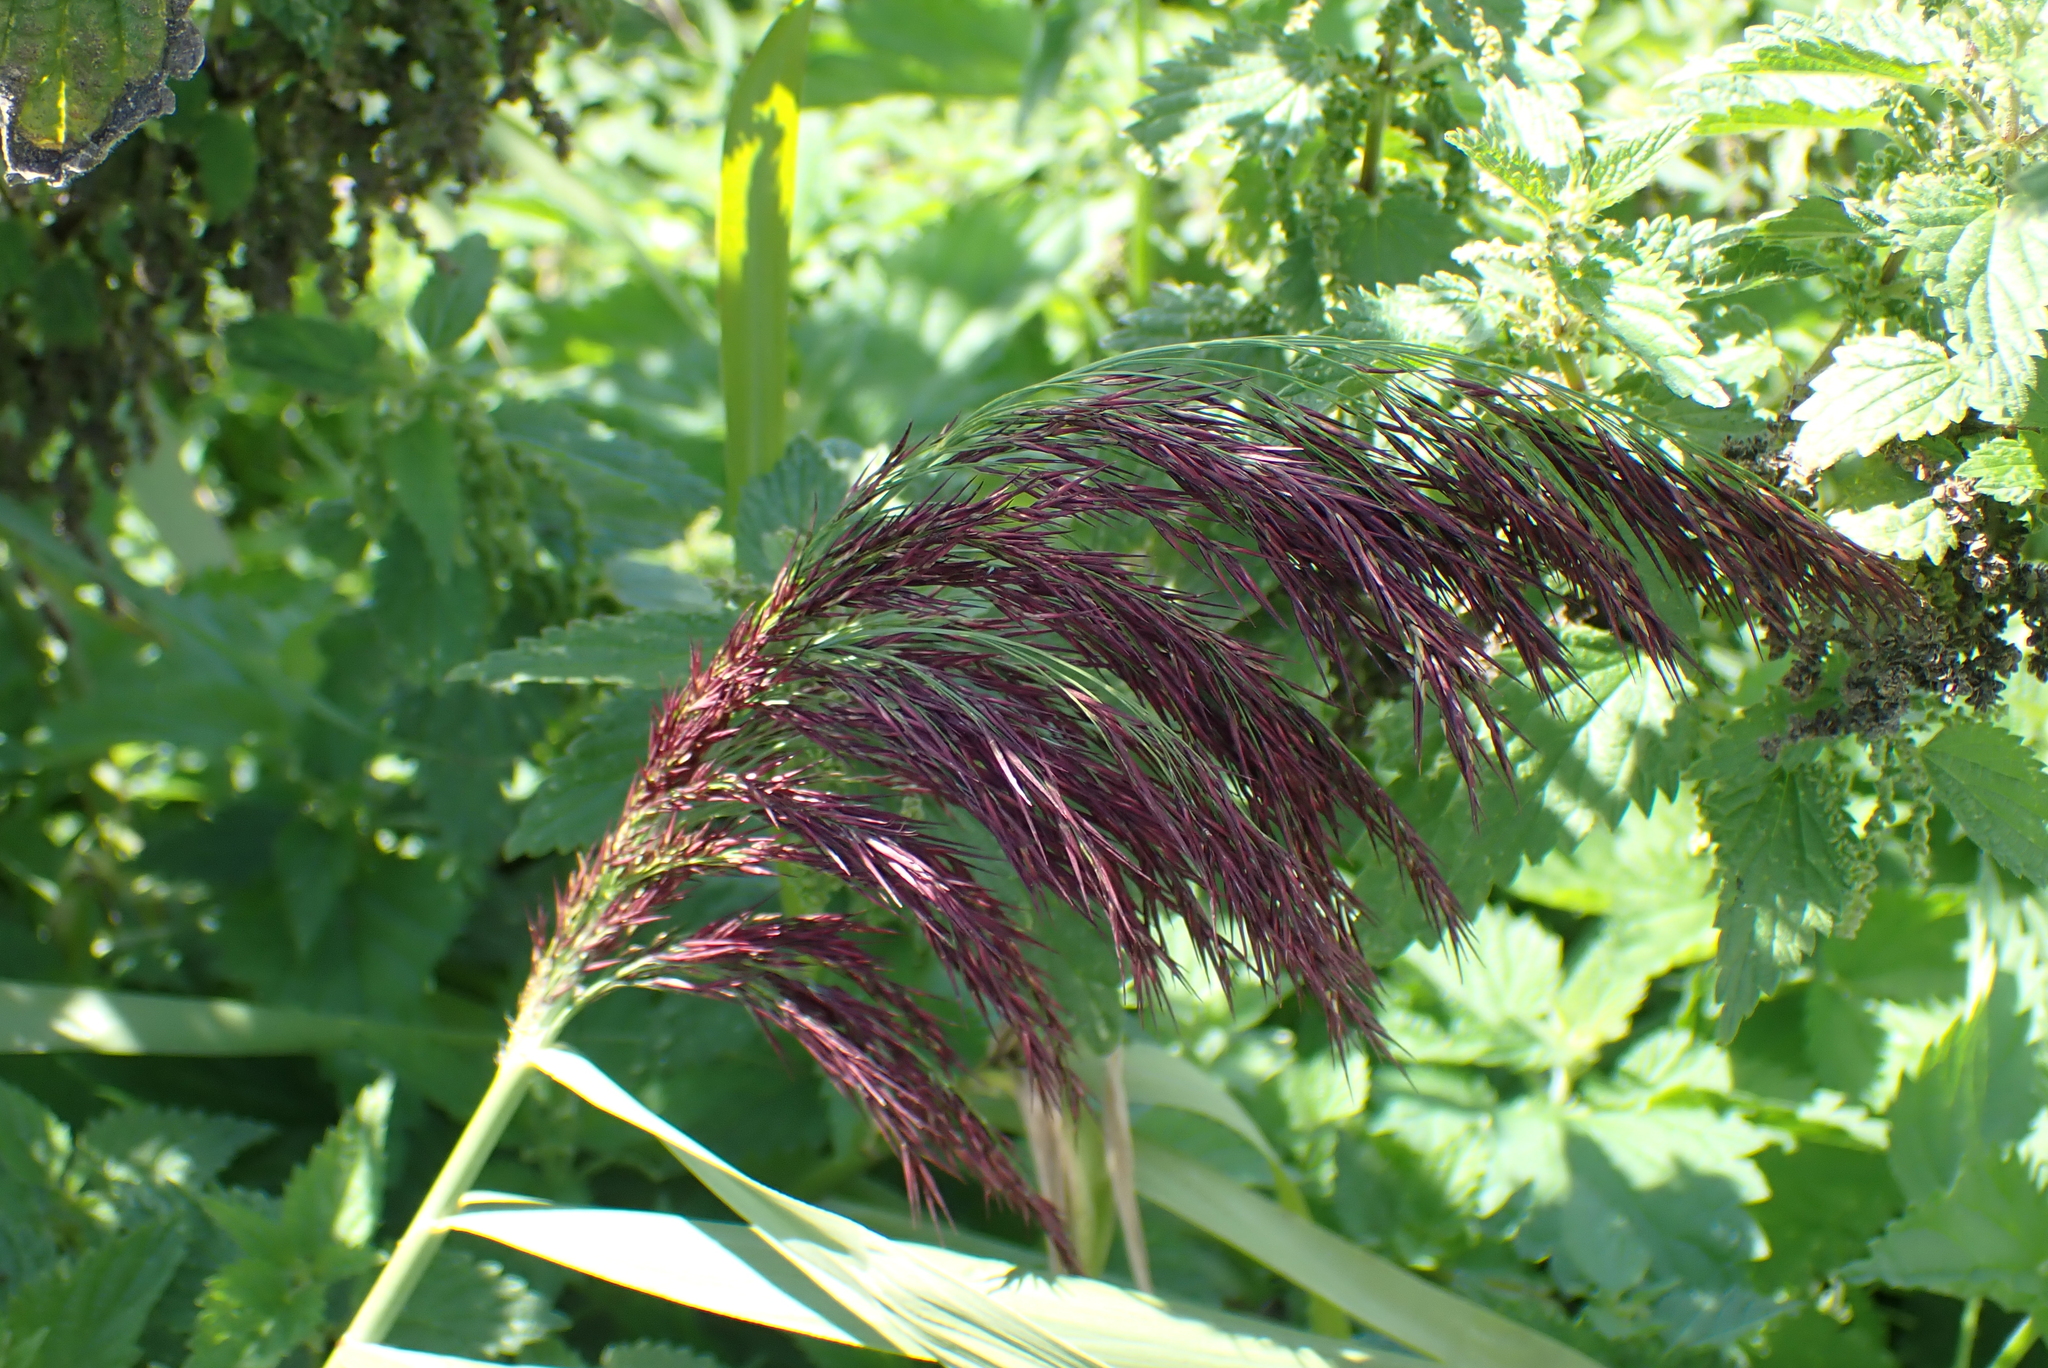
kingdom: Plantae
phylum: Tracheophyta
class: Liliopsida
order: Poales
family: Poaceae
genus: Phragmites
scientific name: Phragmites australis
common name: Common reed
